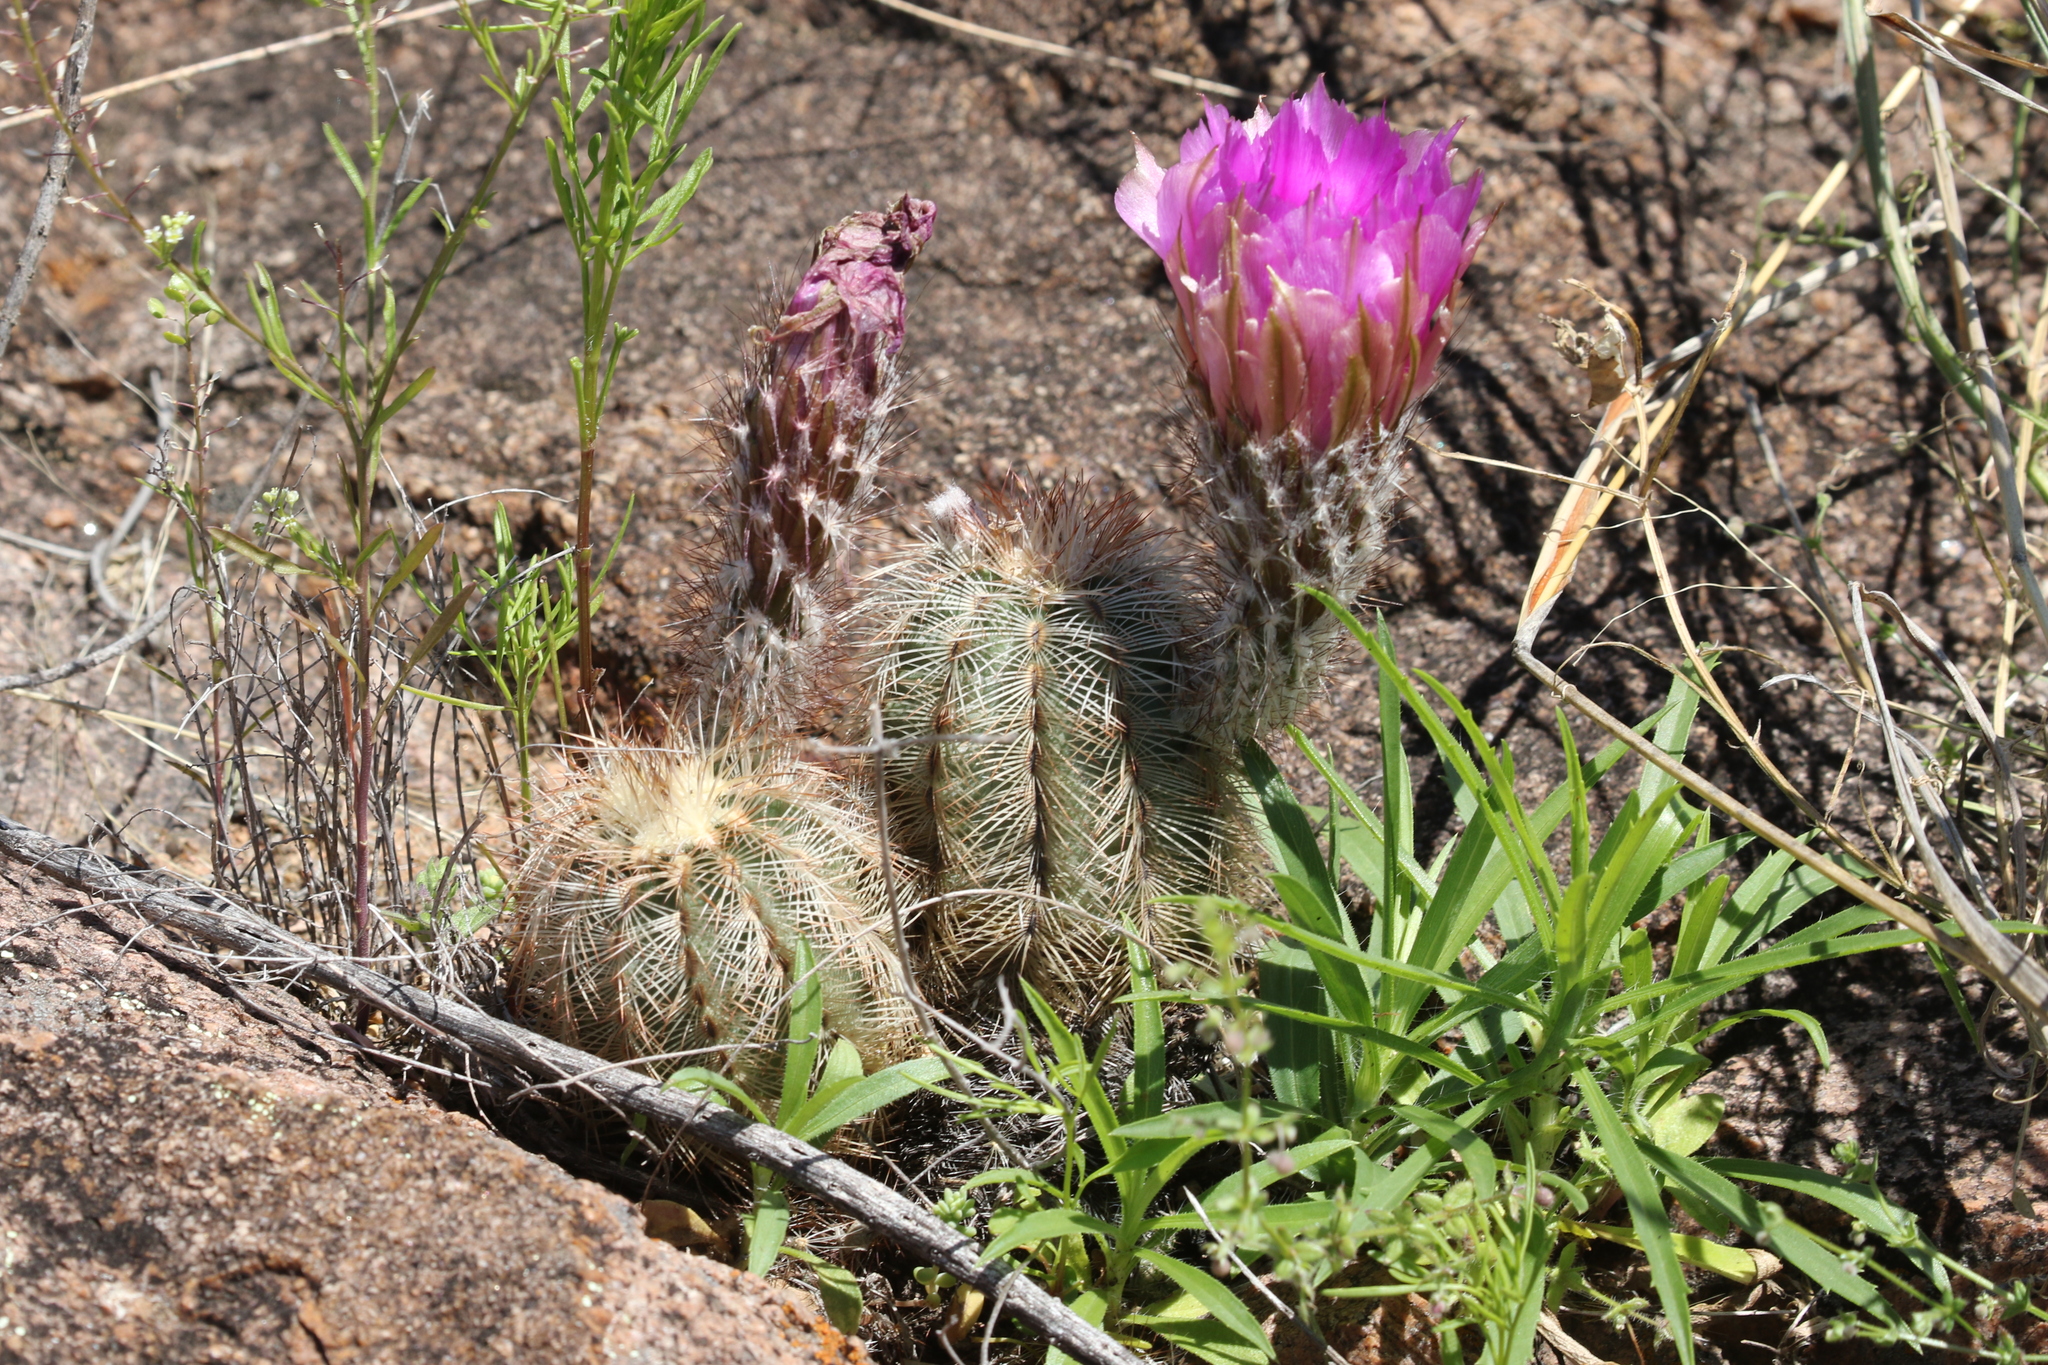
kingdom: Plantae
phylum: Tracheophyta
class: Magnoliopsida
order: Caryophyllales
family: Cactaceae
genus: Echinocereus
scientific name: Echinocereus reichenbachii
